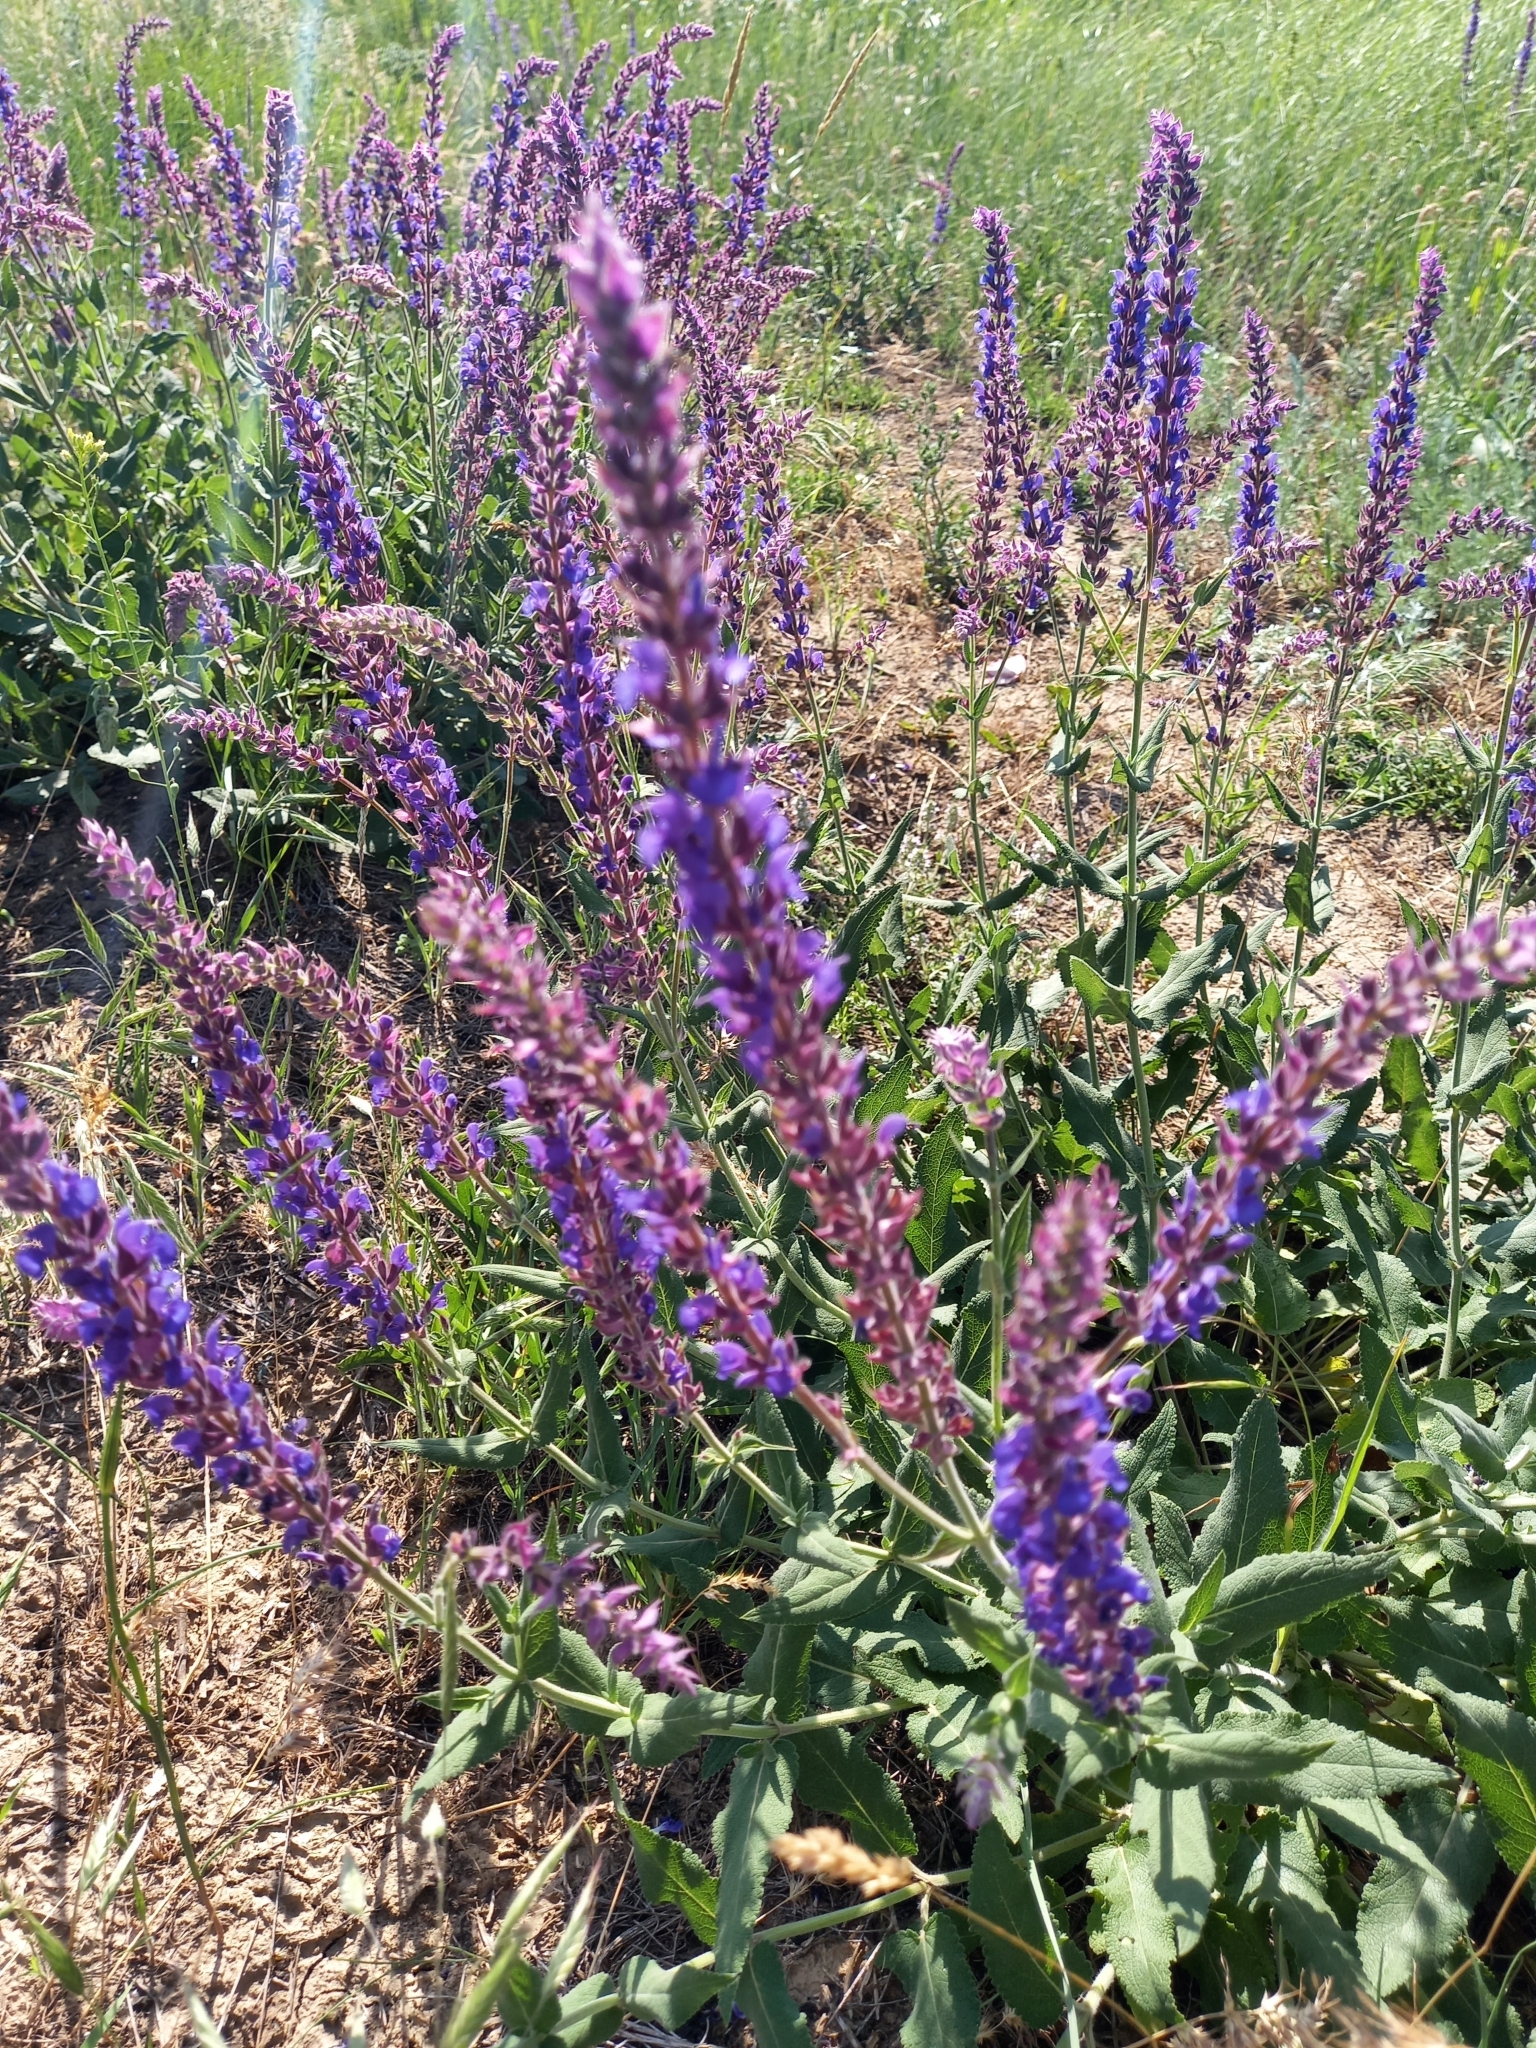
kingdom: Plantae
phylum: Tracheophyta
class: Magnoliopsida
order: Lamiales
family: Lamiaceae
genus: Salvia
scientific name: Salvia nemorosa
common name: Balkan clary
